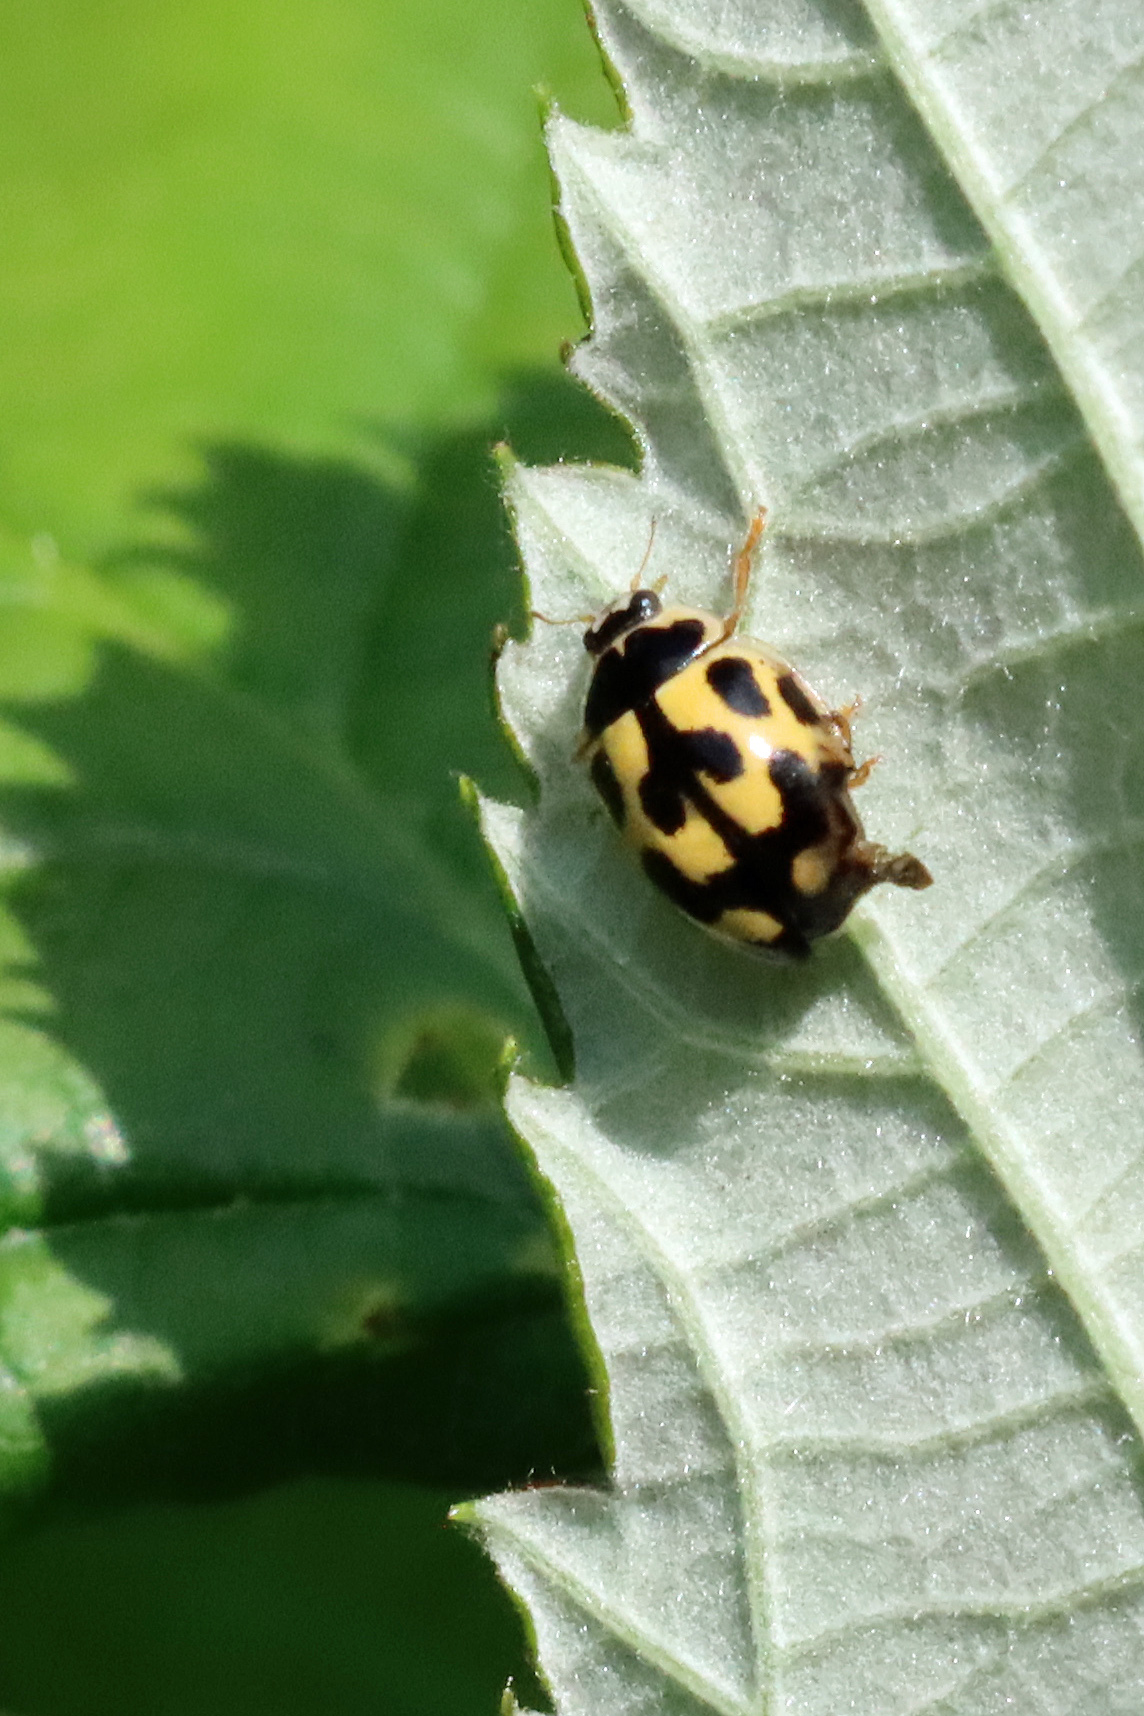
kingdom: Animalia
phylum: Arthropoda
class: Insecta
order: Coleoptera
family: Coccinellidae
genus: Propylaea
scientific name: Propylaea quatuordecimpunctata
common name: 14-spotted ladybird beetle
